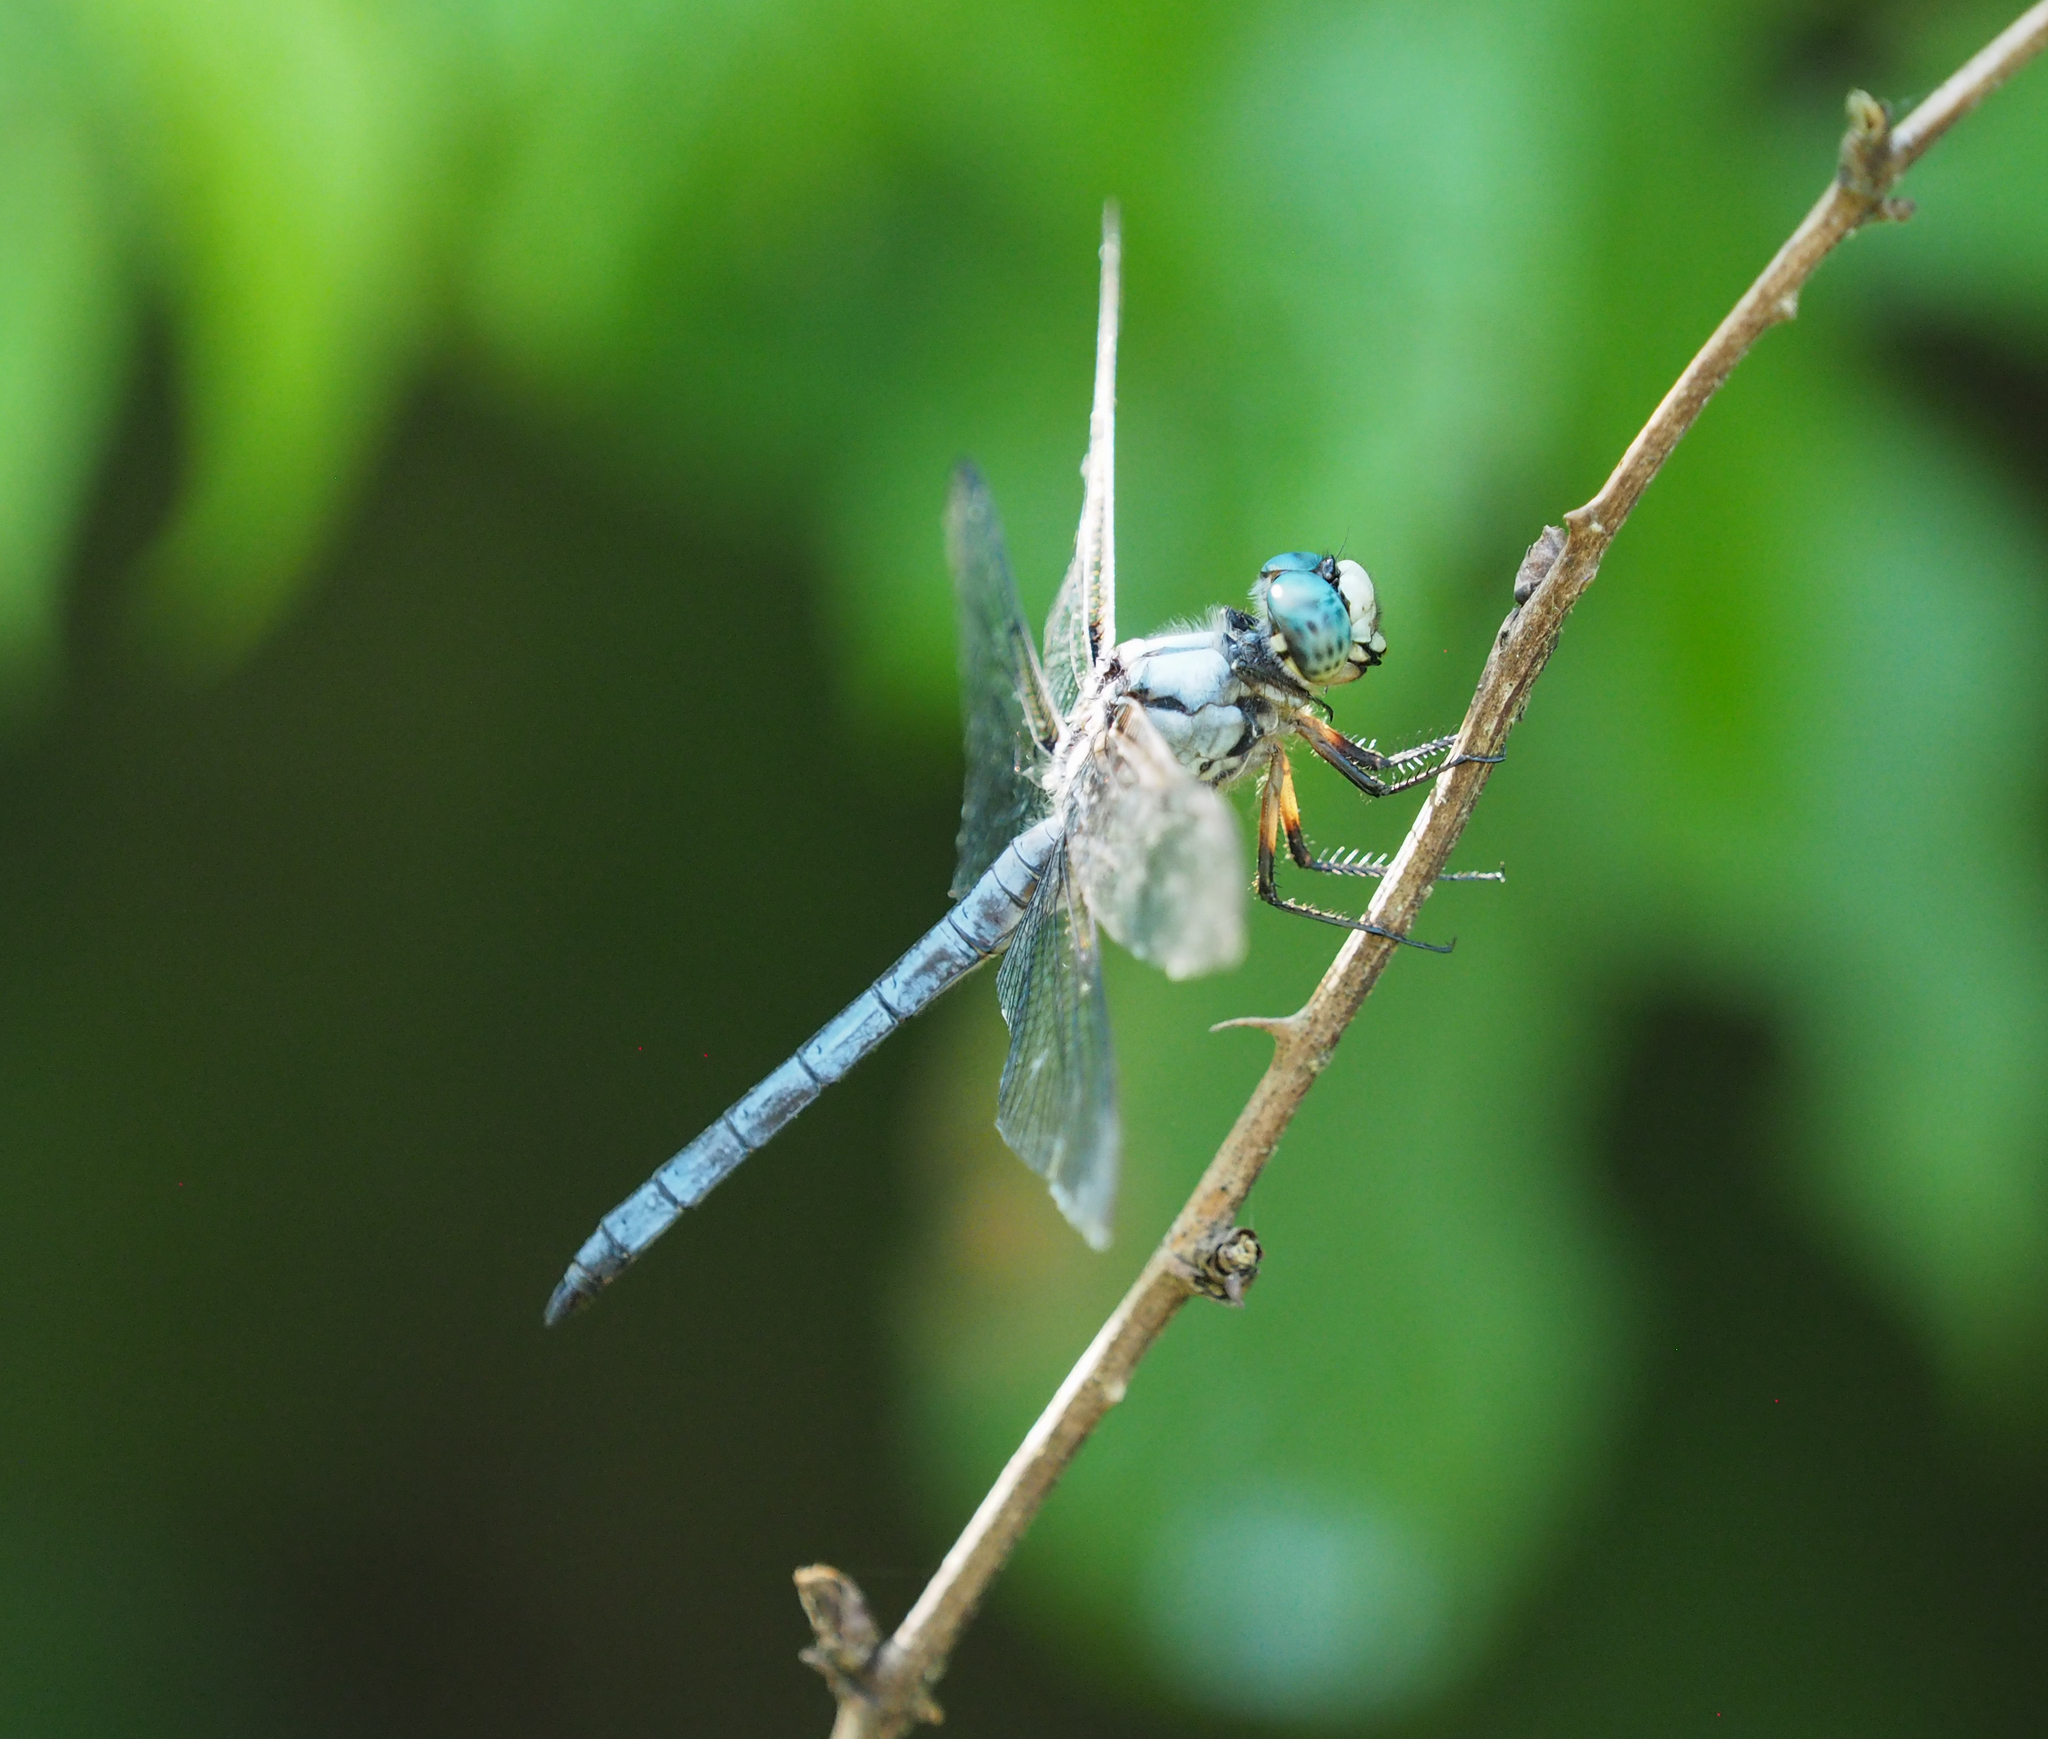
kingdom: Animalia
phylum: Arthropoda
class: Insecta
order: Odonata
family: Libellulidae
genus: Libellula
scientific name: Libellula vibrans
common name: Great blue skimmer
